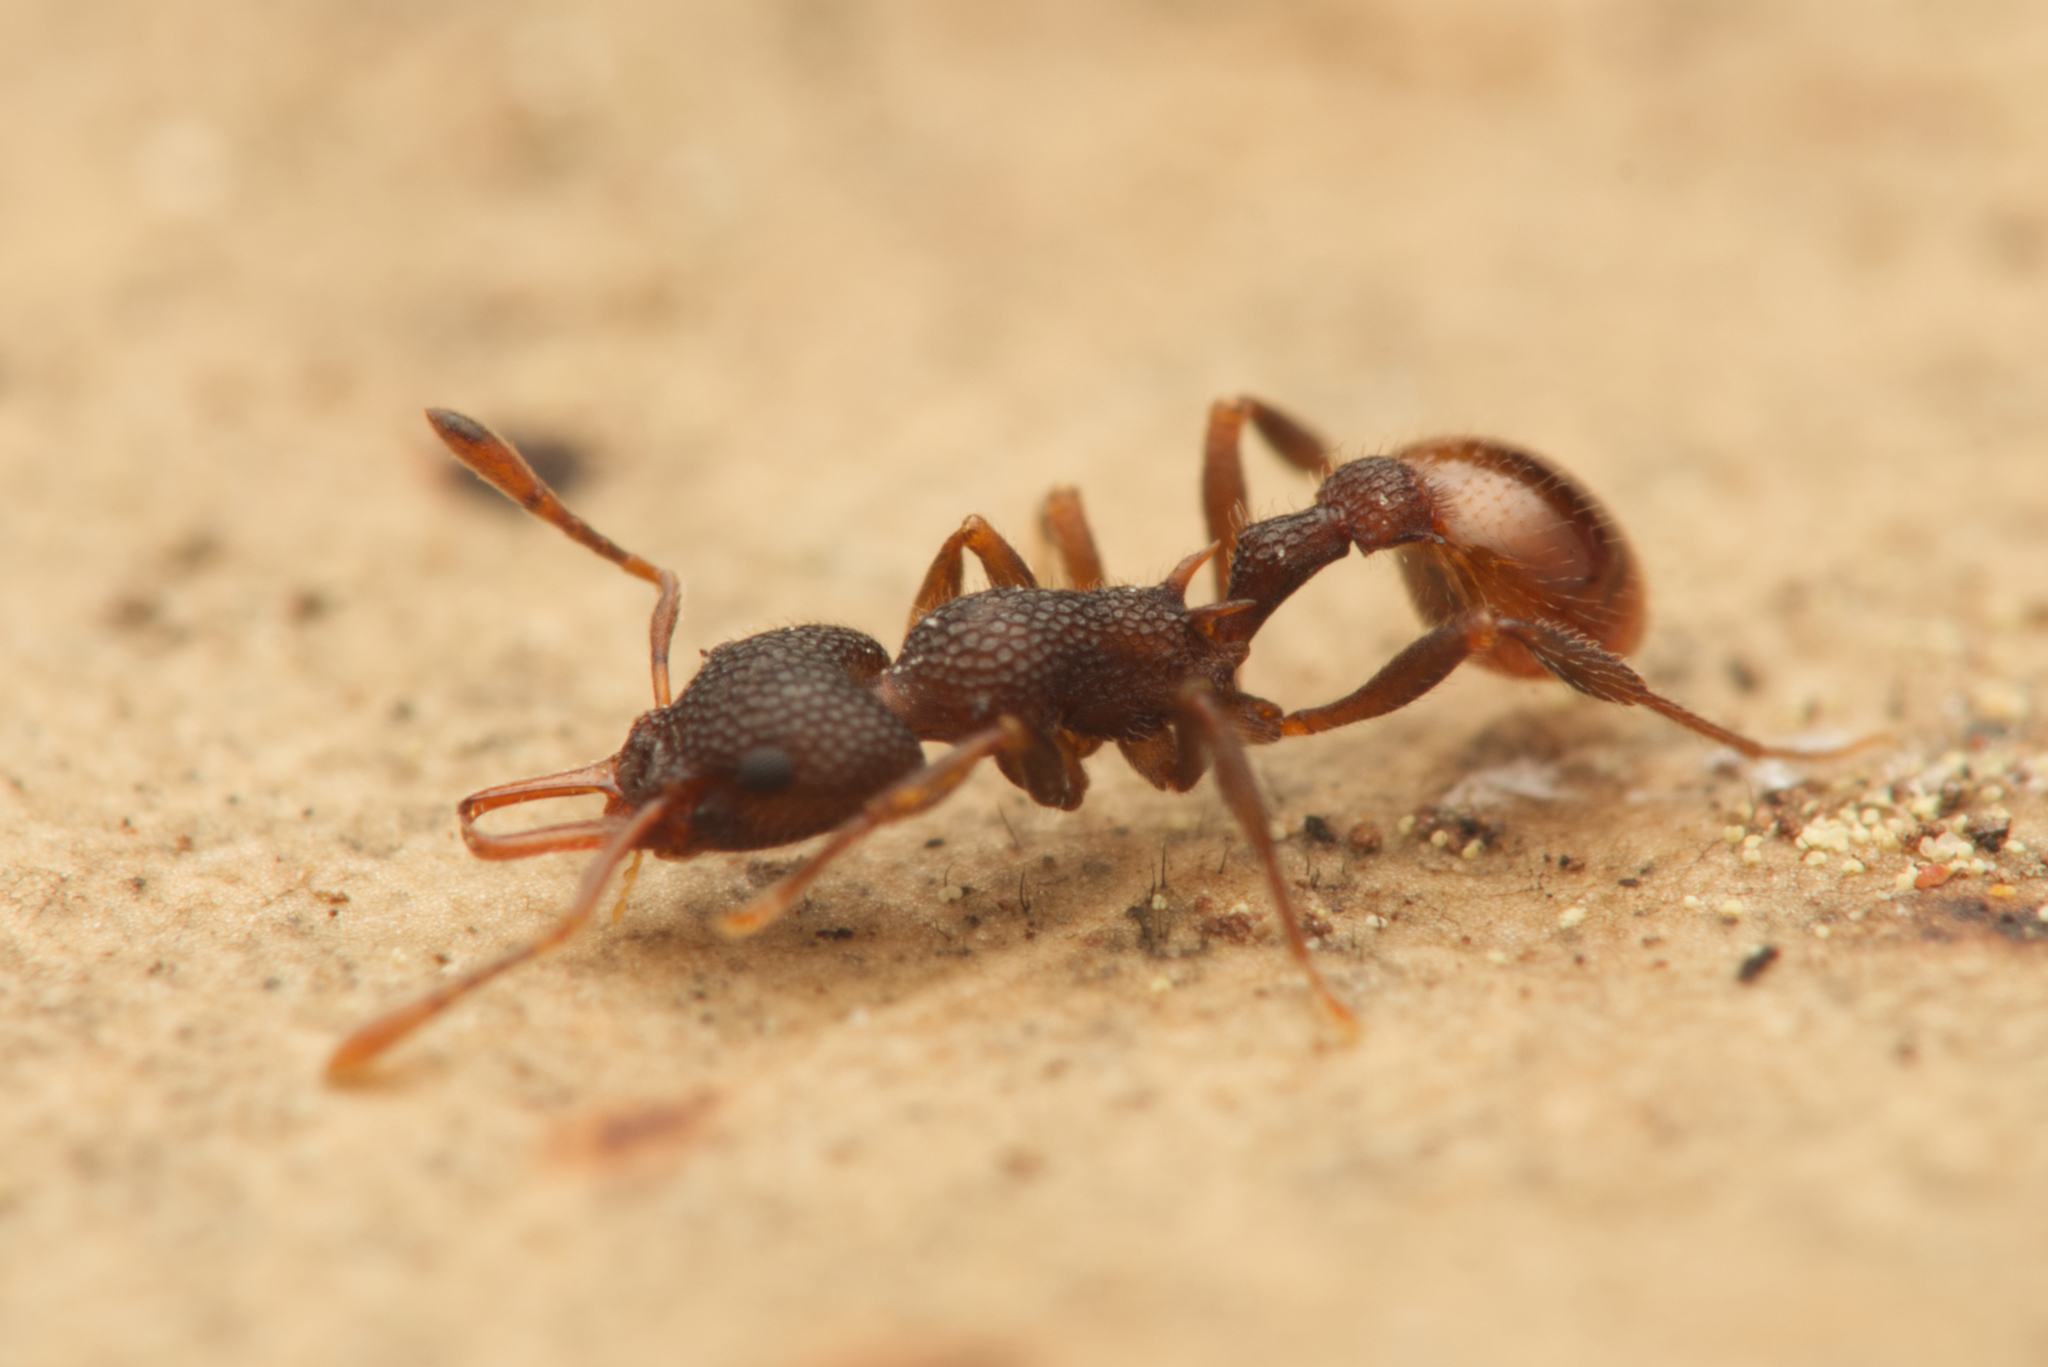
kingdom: Animalia
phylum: Arthropoda
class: Insecta
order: Hymenoptera
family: Formicidae
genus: Epopostruma
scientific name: Epopostruma
